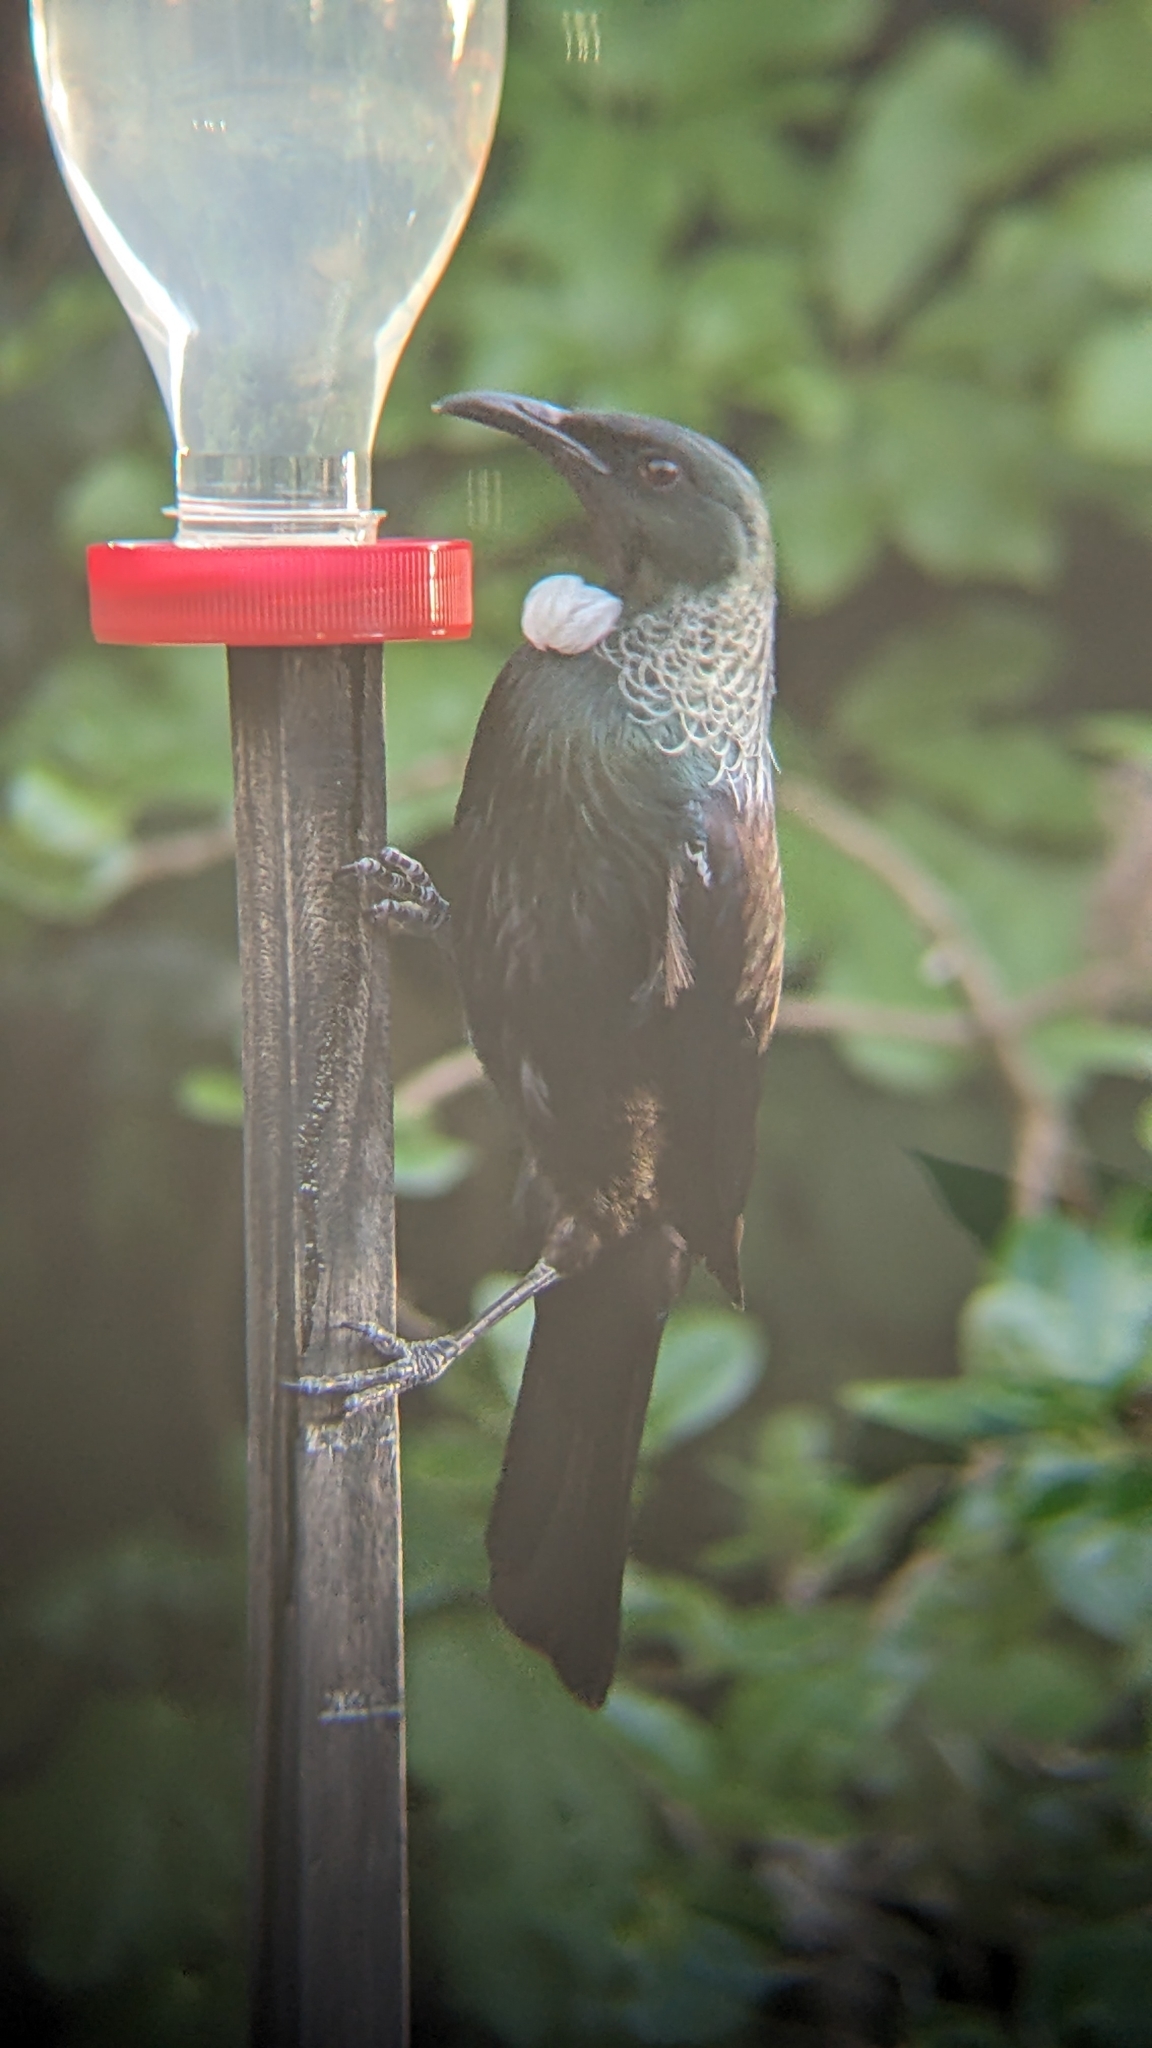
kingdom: Animalia
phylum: Chordata
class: Aves
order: Passeriformes
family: Meliphagidae
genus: Prosthemadera
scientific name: Prosthemadera novaeseelandiae
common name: Tui
